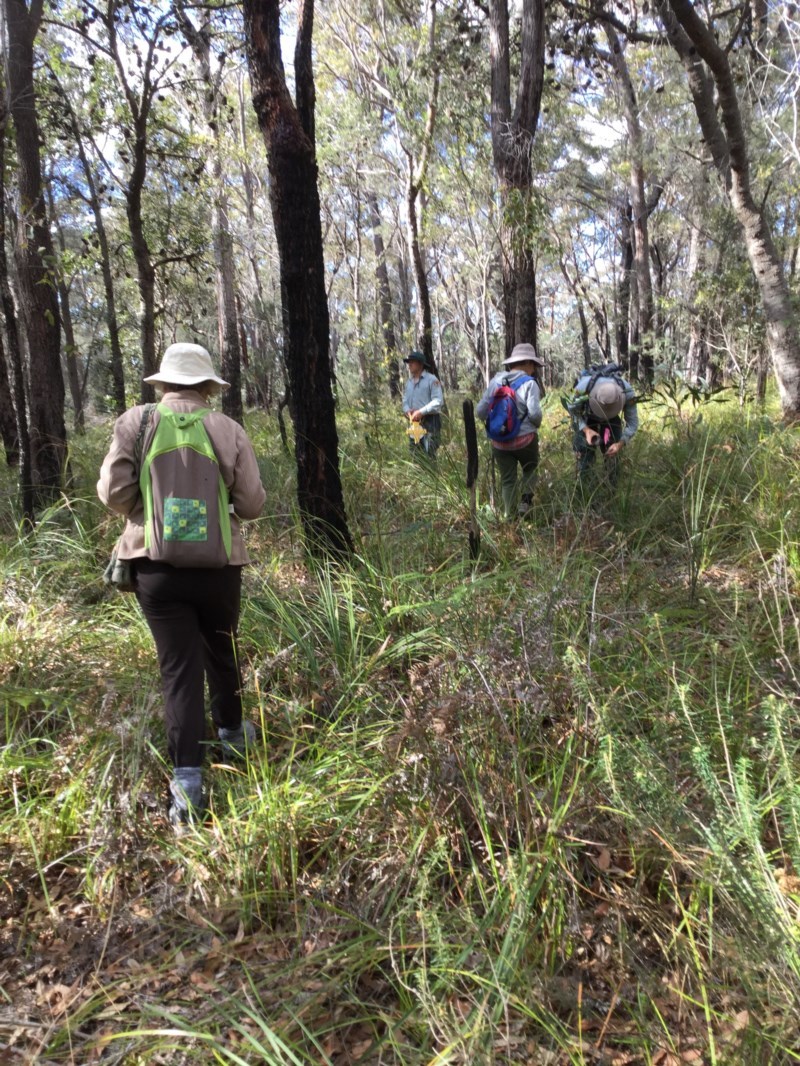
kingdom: Plantae
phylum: Tracheophyta
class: Magnoliopsida
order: Apiales
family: Araliaceae
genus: Astrotricha
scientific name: Astrotricha
